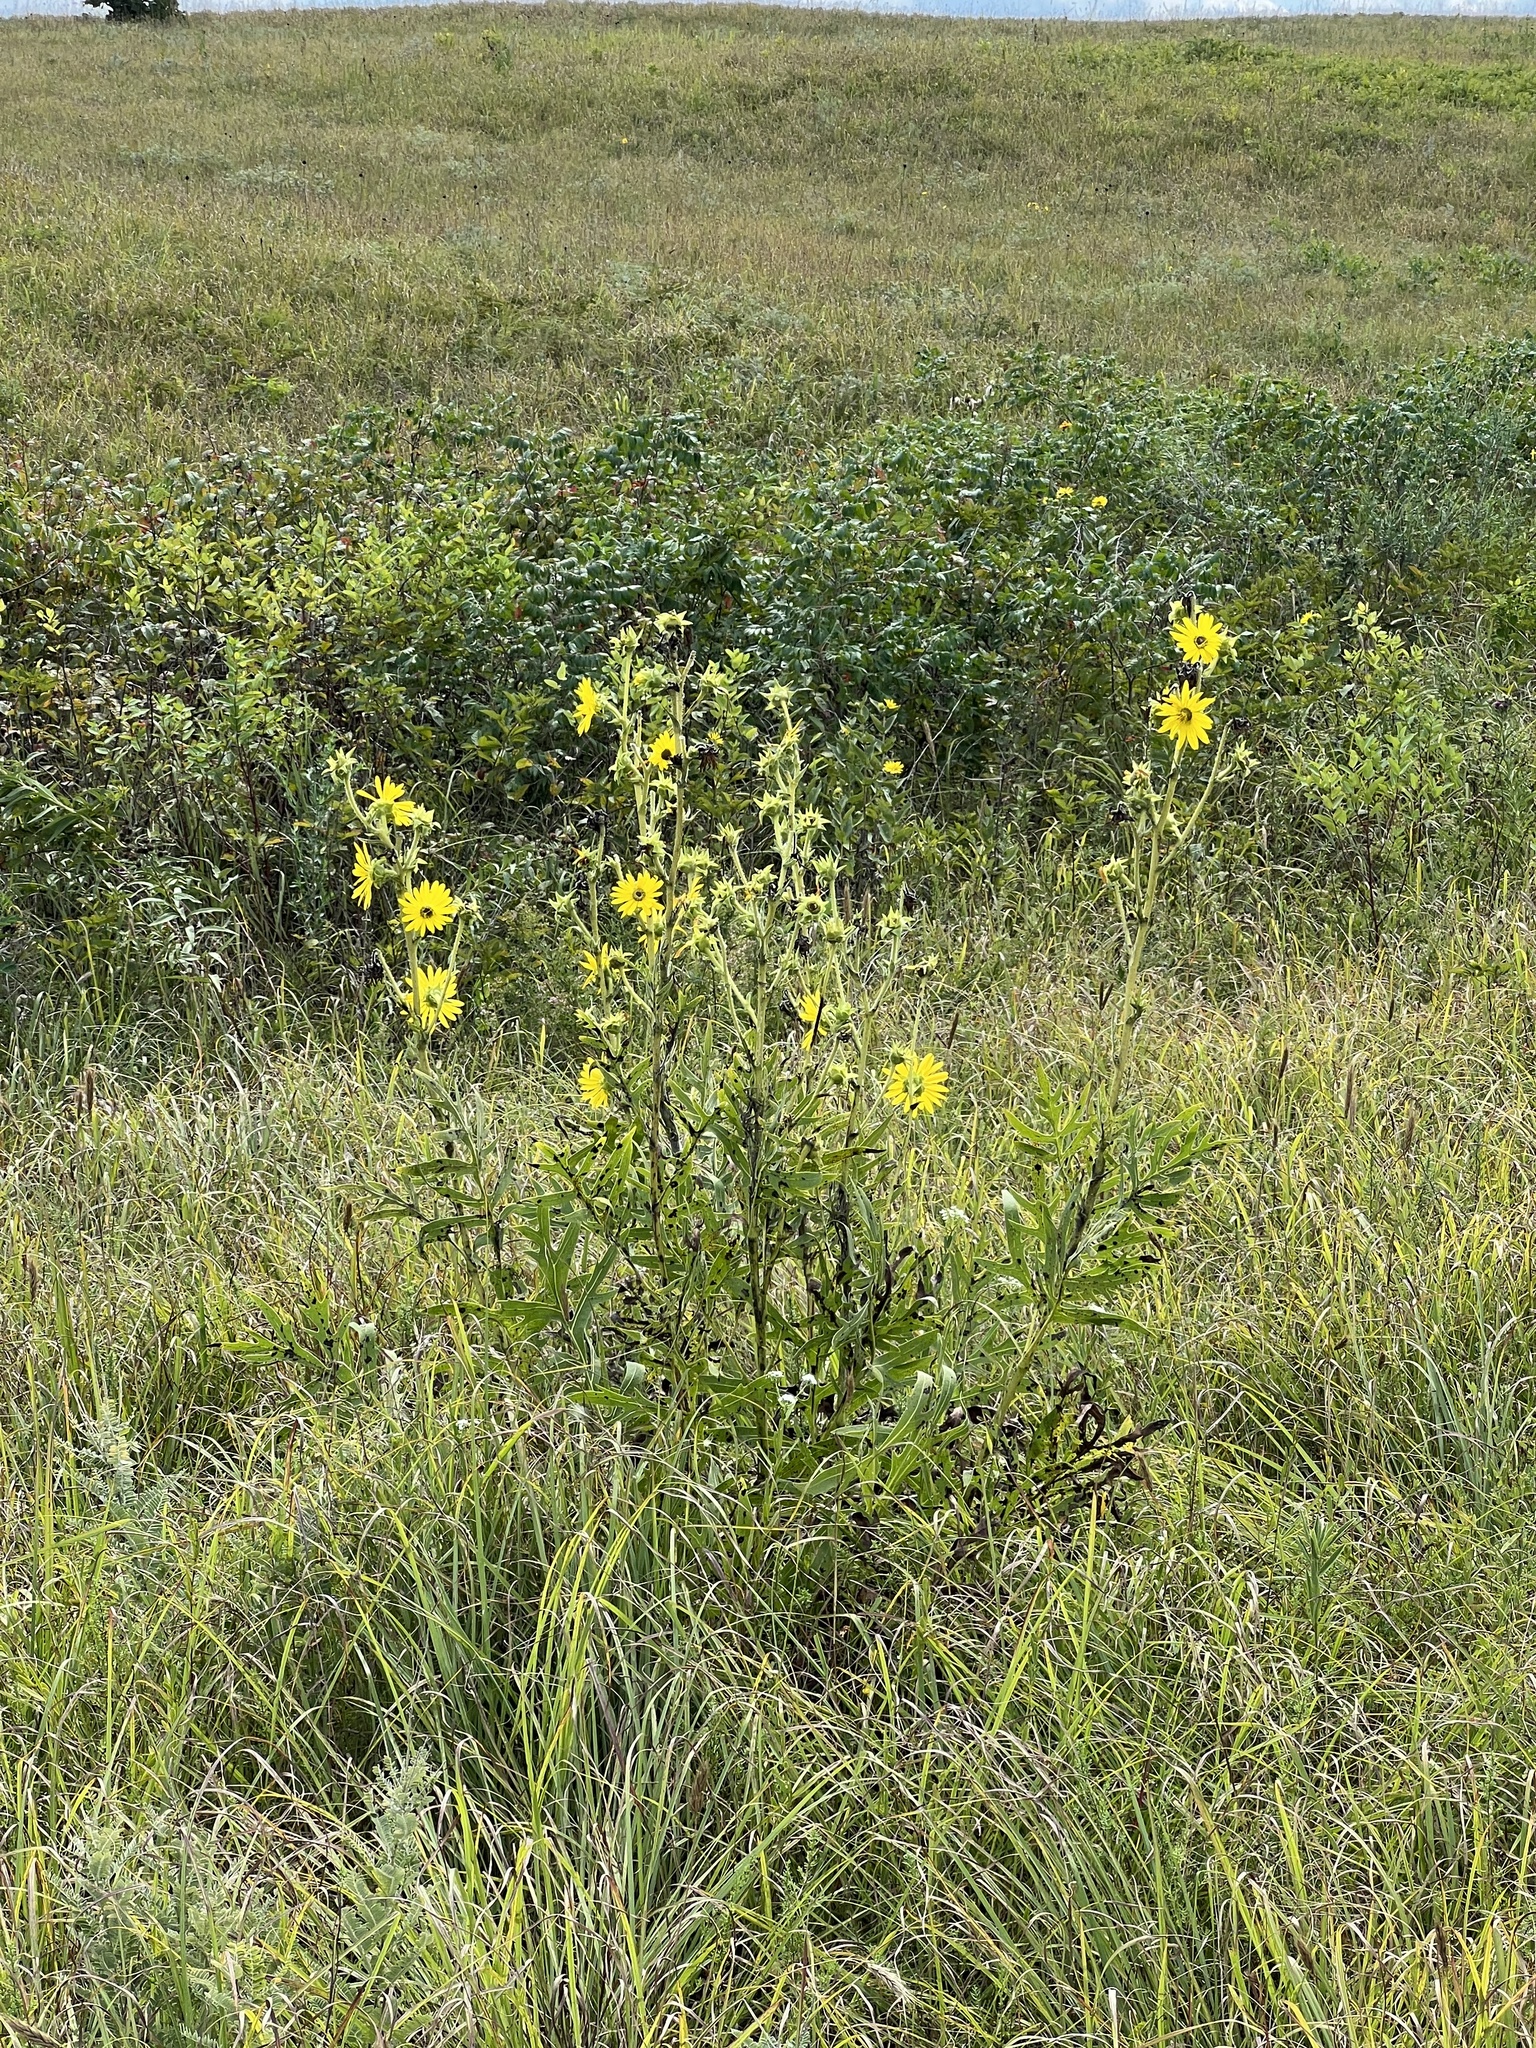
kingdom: Plantae
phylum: Tracheophyta
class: Magnoliopsida
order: Asterales
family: Asteraceae
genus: Silphium
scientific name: Silphium laciniatum
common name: Polarplant
